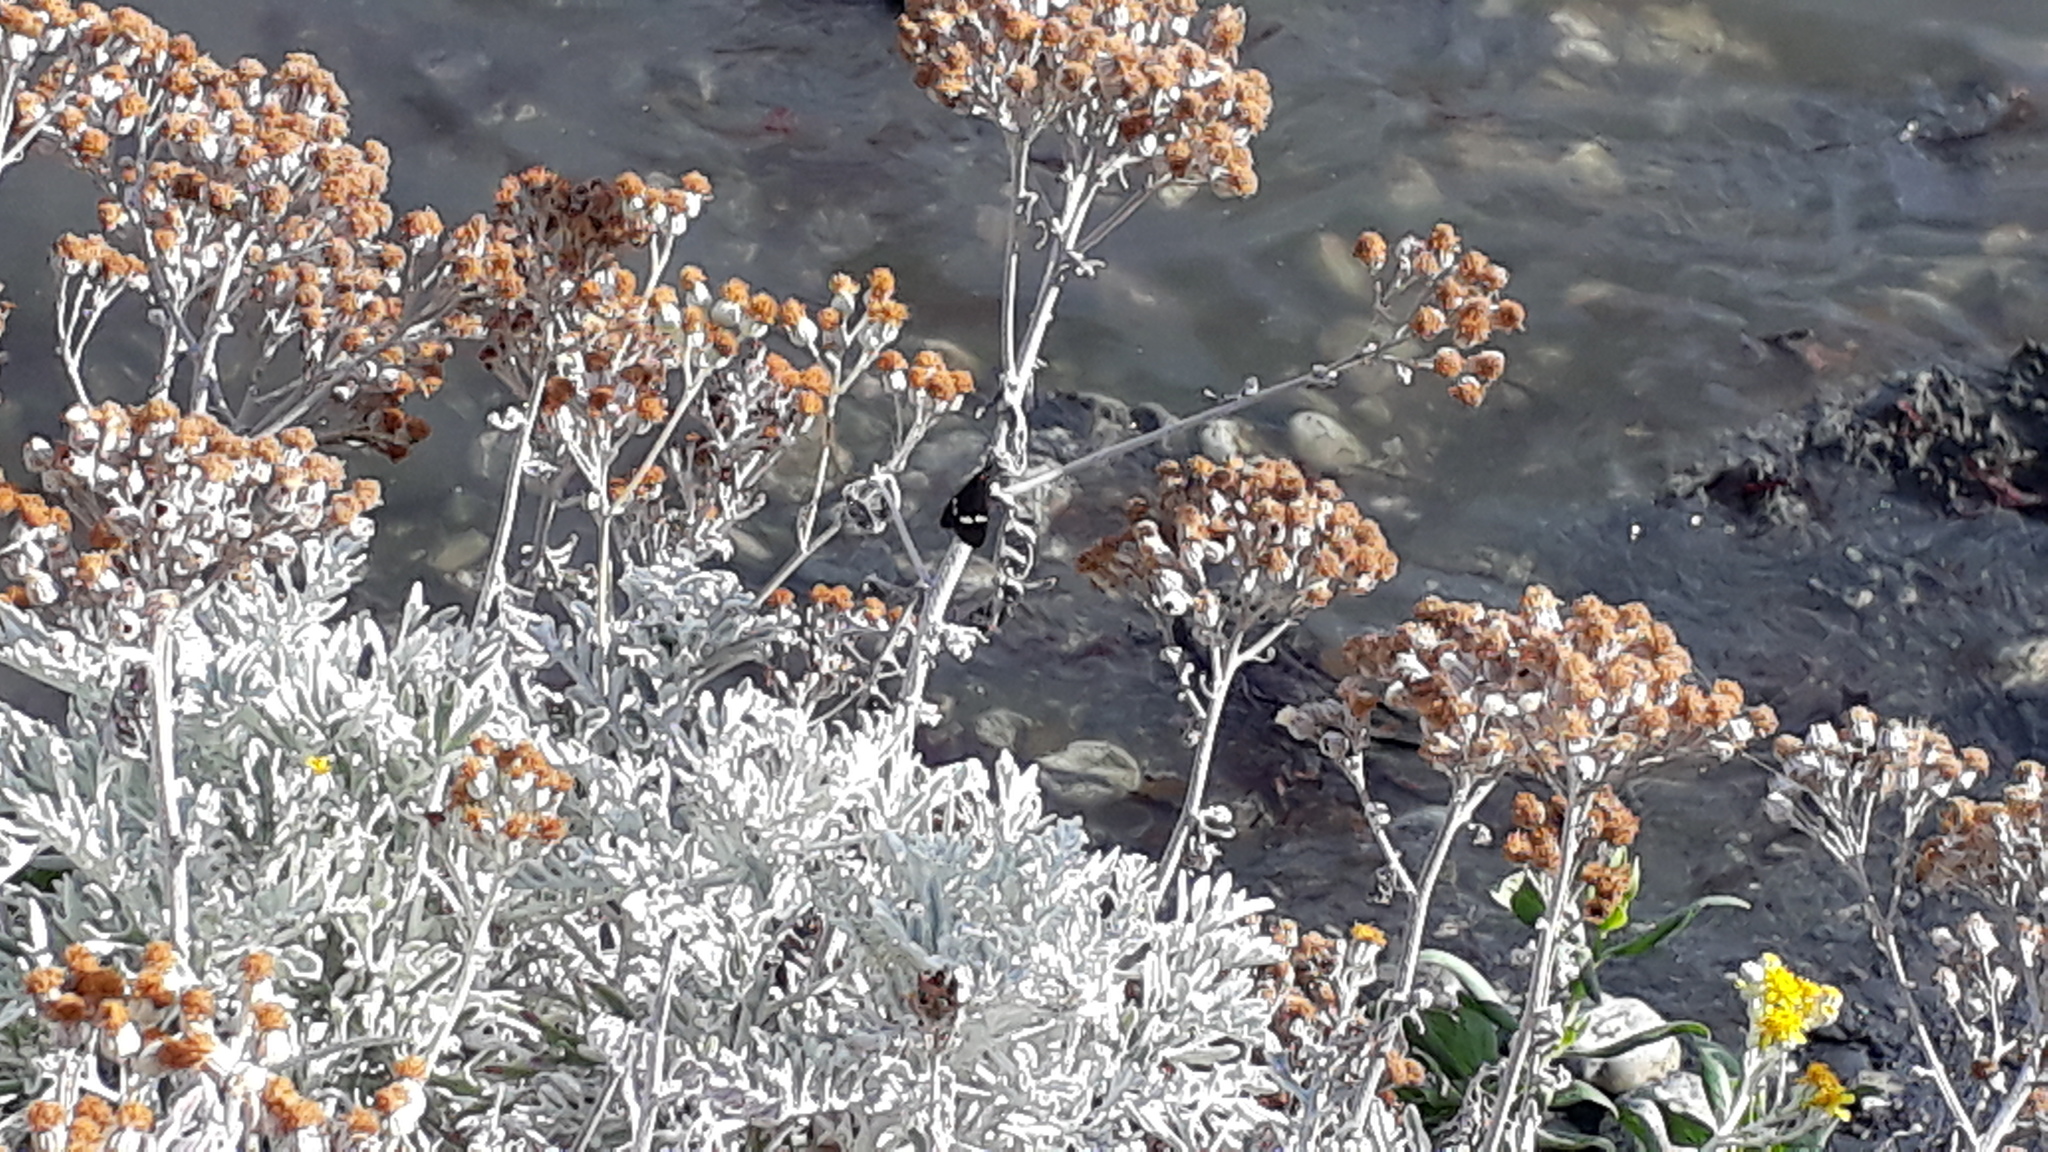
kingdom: Animalia
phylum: Arthropoda
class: Insecta
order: Lepidoptera
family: Erebidae
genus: Nyctemera
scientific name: Nyctemera annulatum
